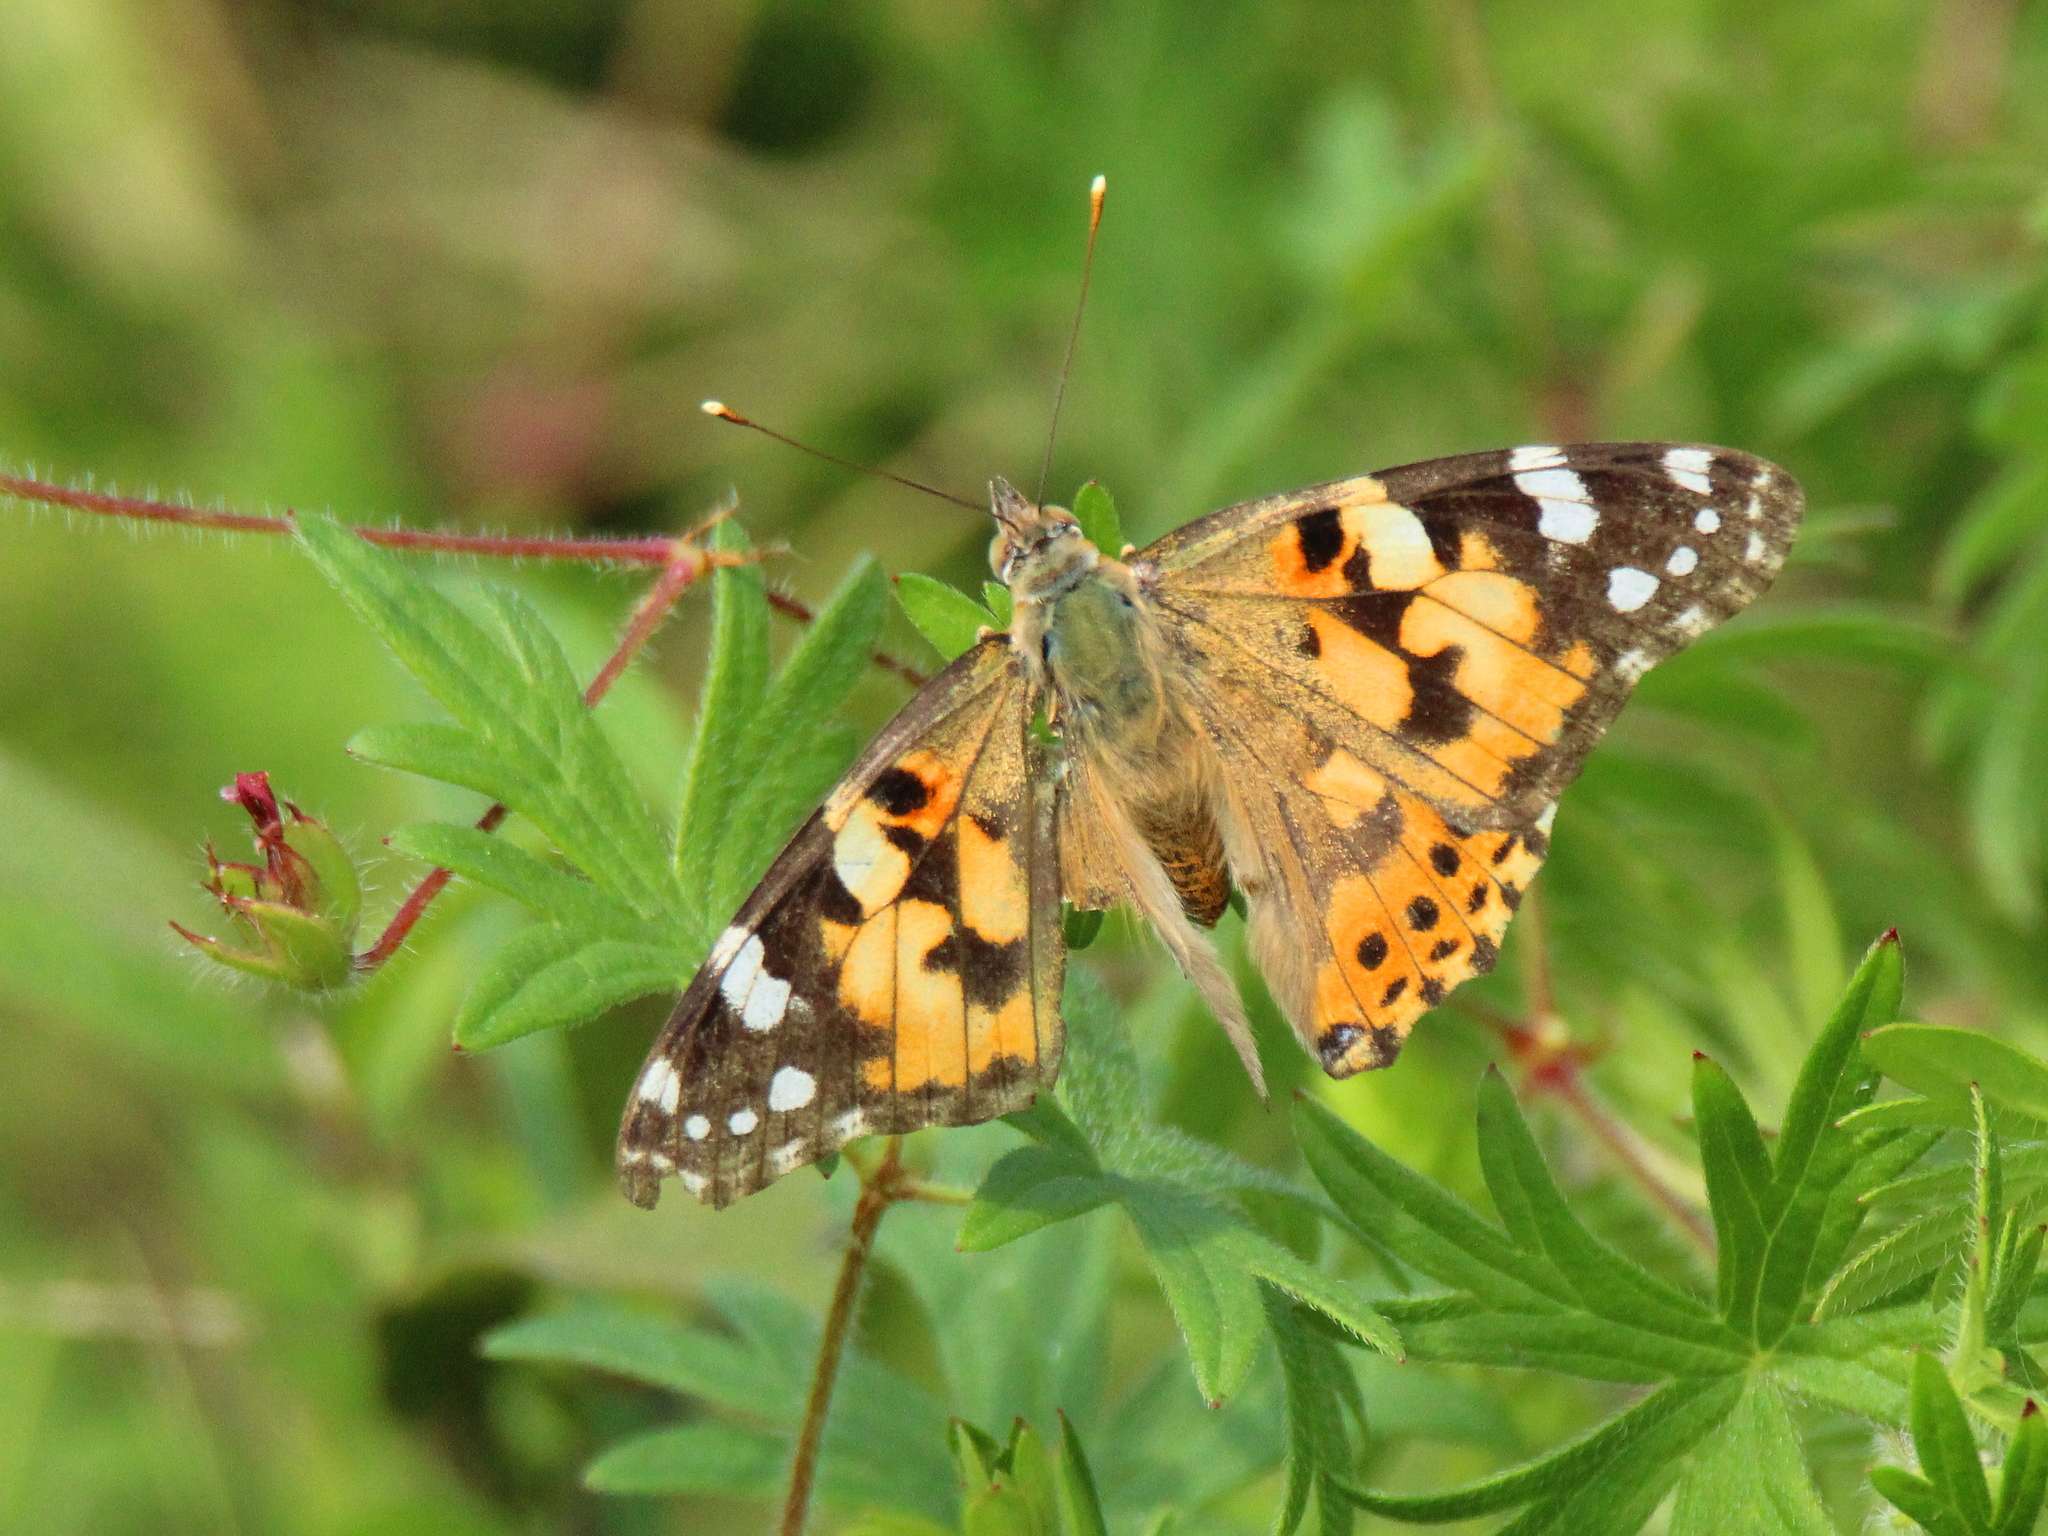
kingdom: Animalia
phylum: Arthropoda
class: Insecta
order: Lepidoptera
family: Nymphalidae
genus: Vanessa
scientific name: Vanessa cardui
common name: Painted lady
